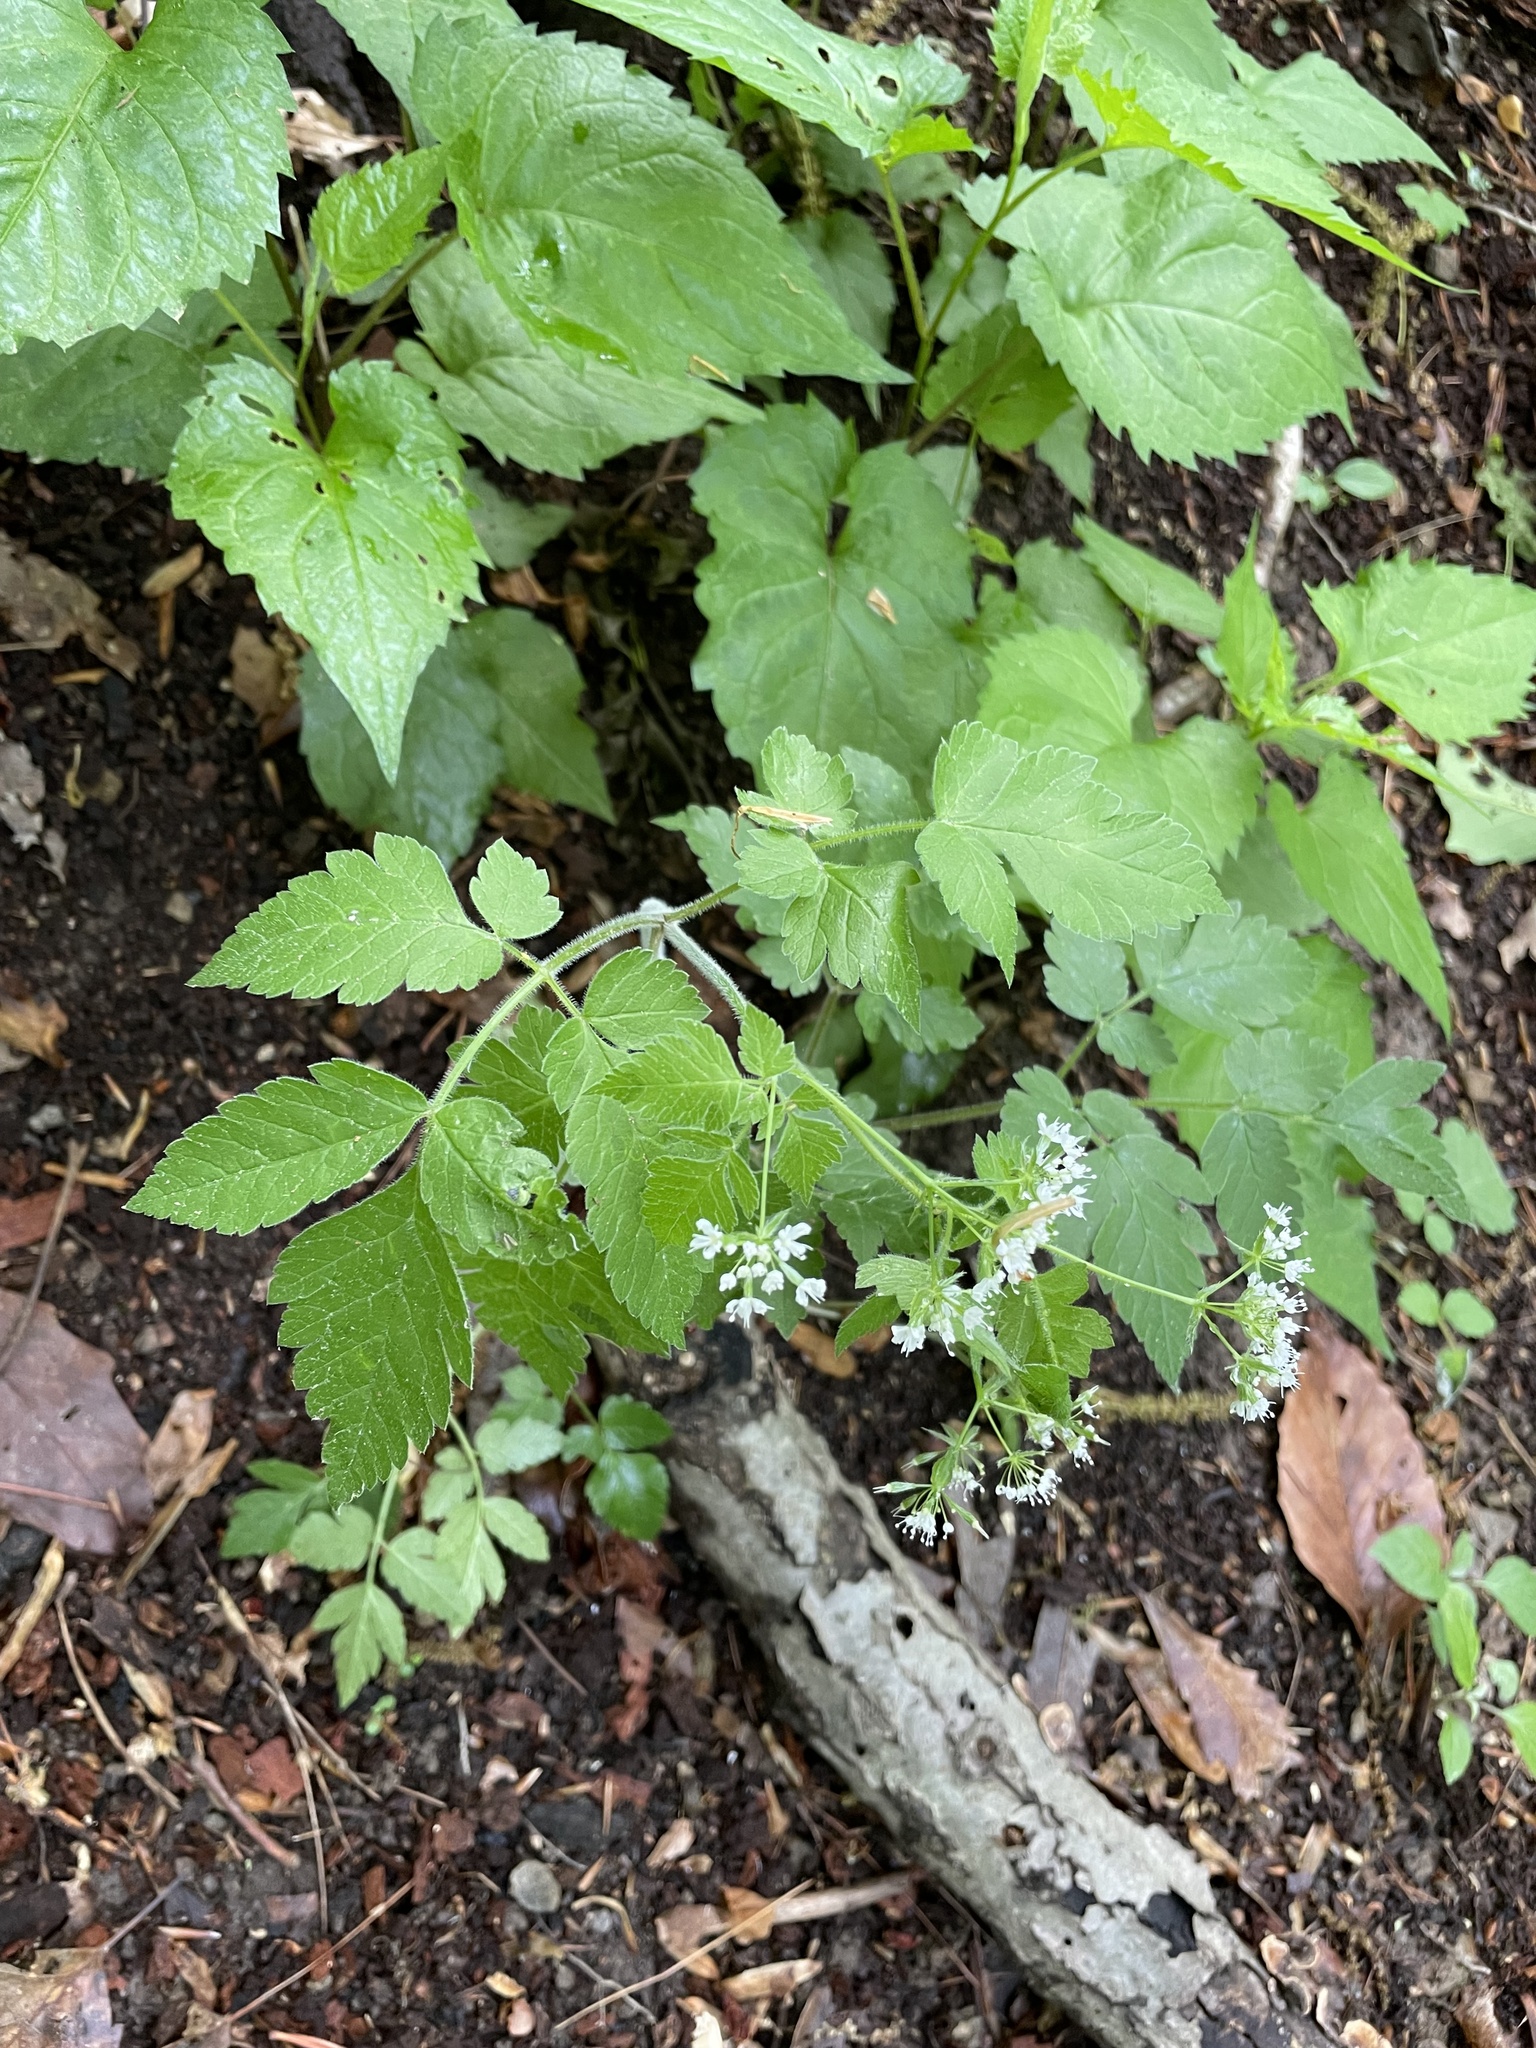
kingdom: Plantae
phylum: Tracheophyta
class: Magnoliopsida
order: Apiales
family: Apiaceae
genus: Osmorhiza
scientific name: Osmorhiza longistylis
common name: Smooth sweet cicely
